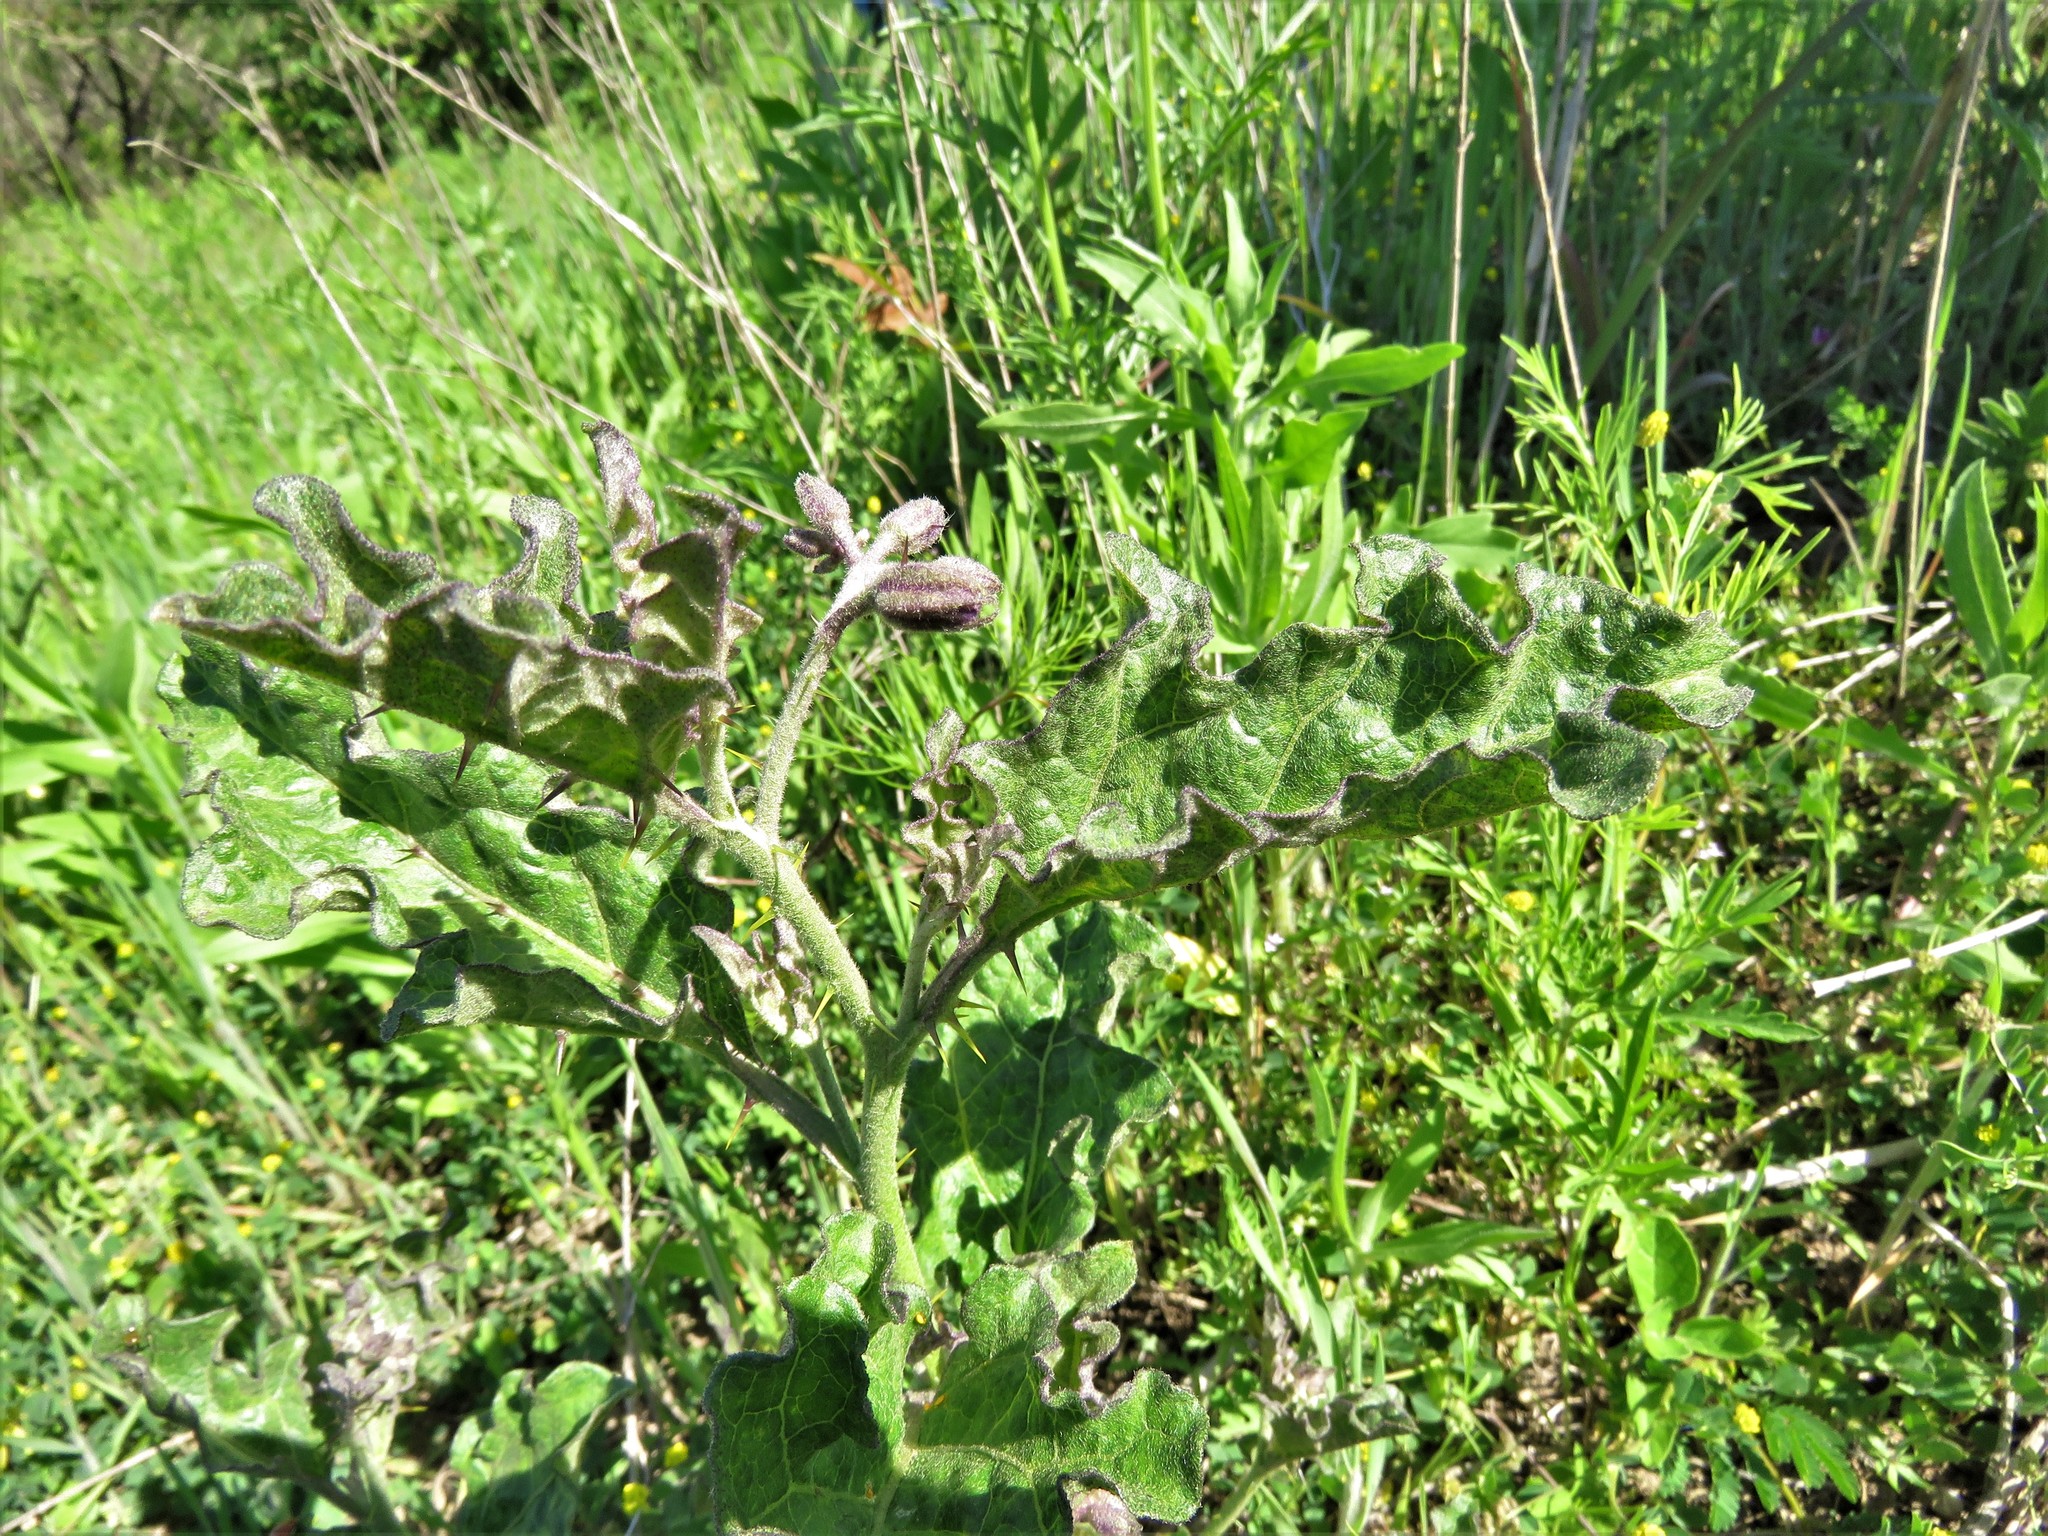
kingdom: Plantae
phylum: Tracheophyta
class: Magnoliopsida
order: Solanales
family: Solanaceae
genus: Solanum
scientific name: Solanum dimidiatum
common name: Carolina horse-nettle
